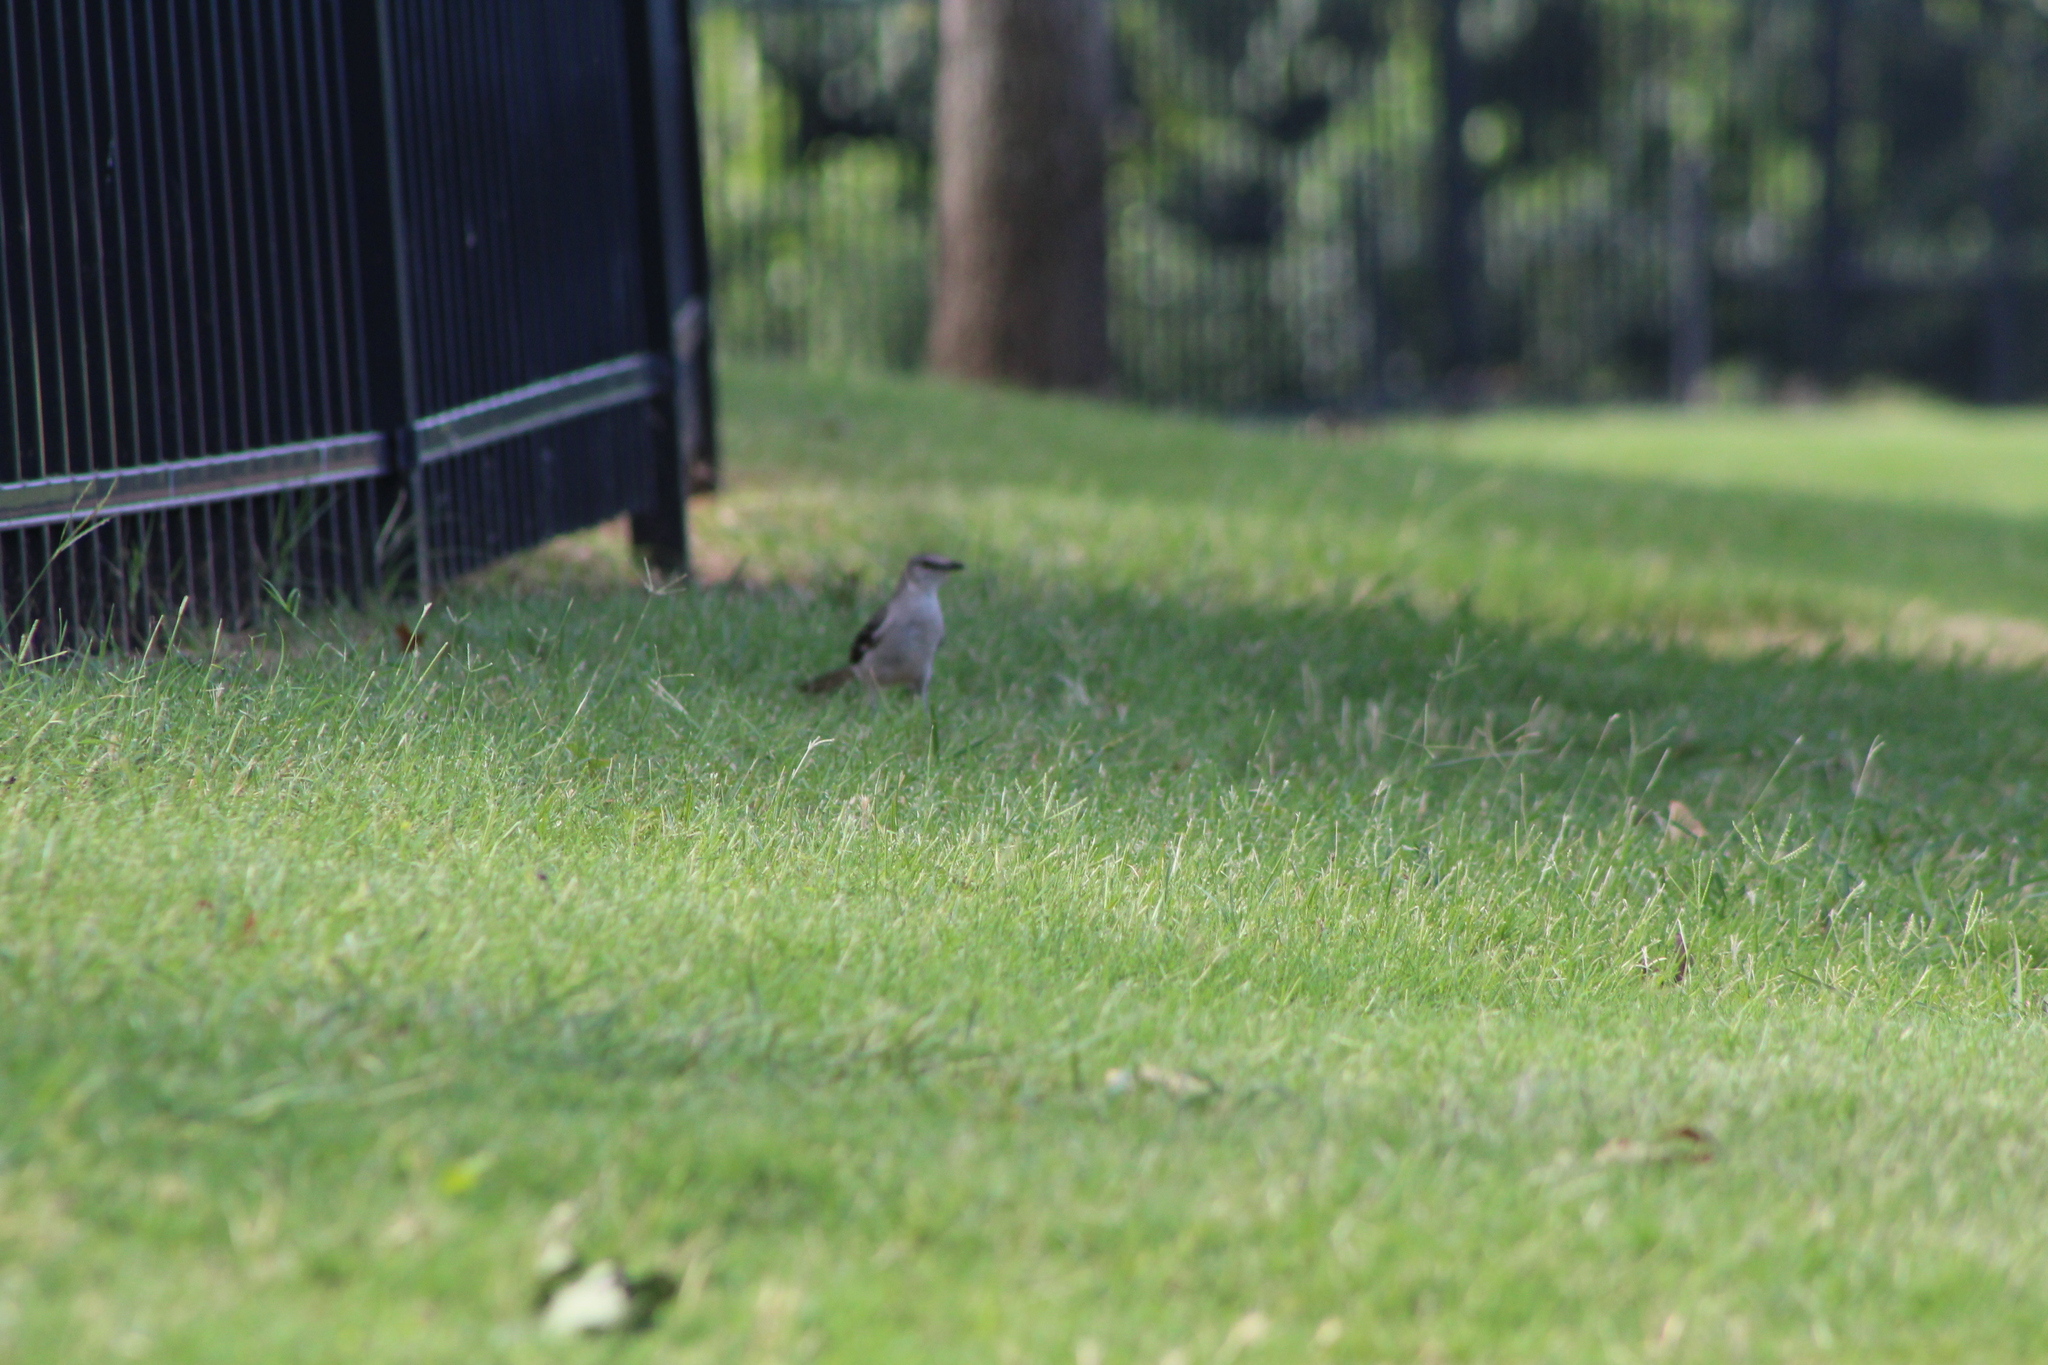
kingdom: Animalia
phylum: Chordata
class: Aves
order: Passeriformes
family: Mimidae
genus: Mimus
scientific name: Mimus polyglottos
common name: Northern mockingbird
